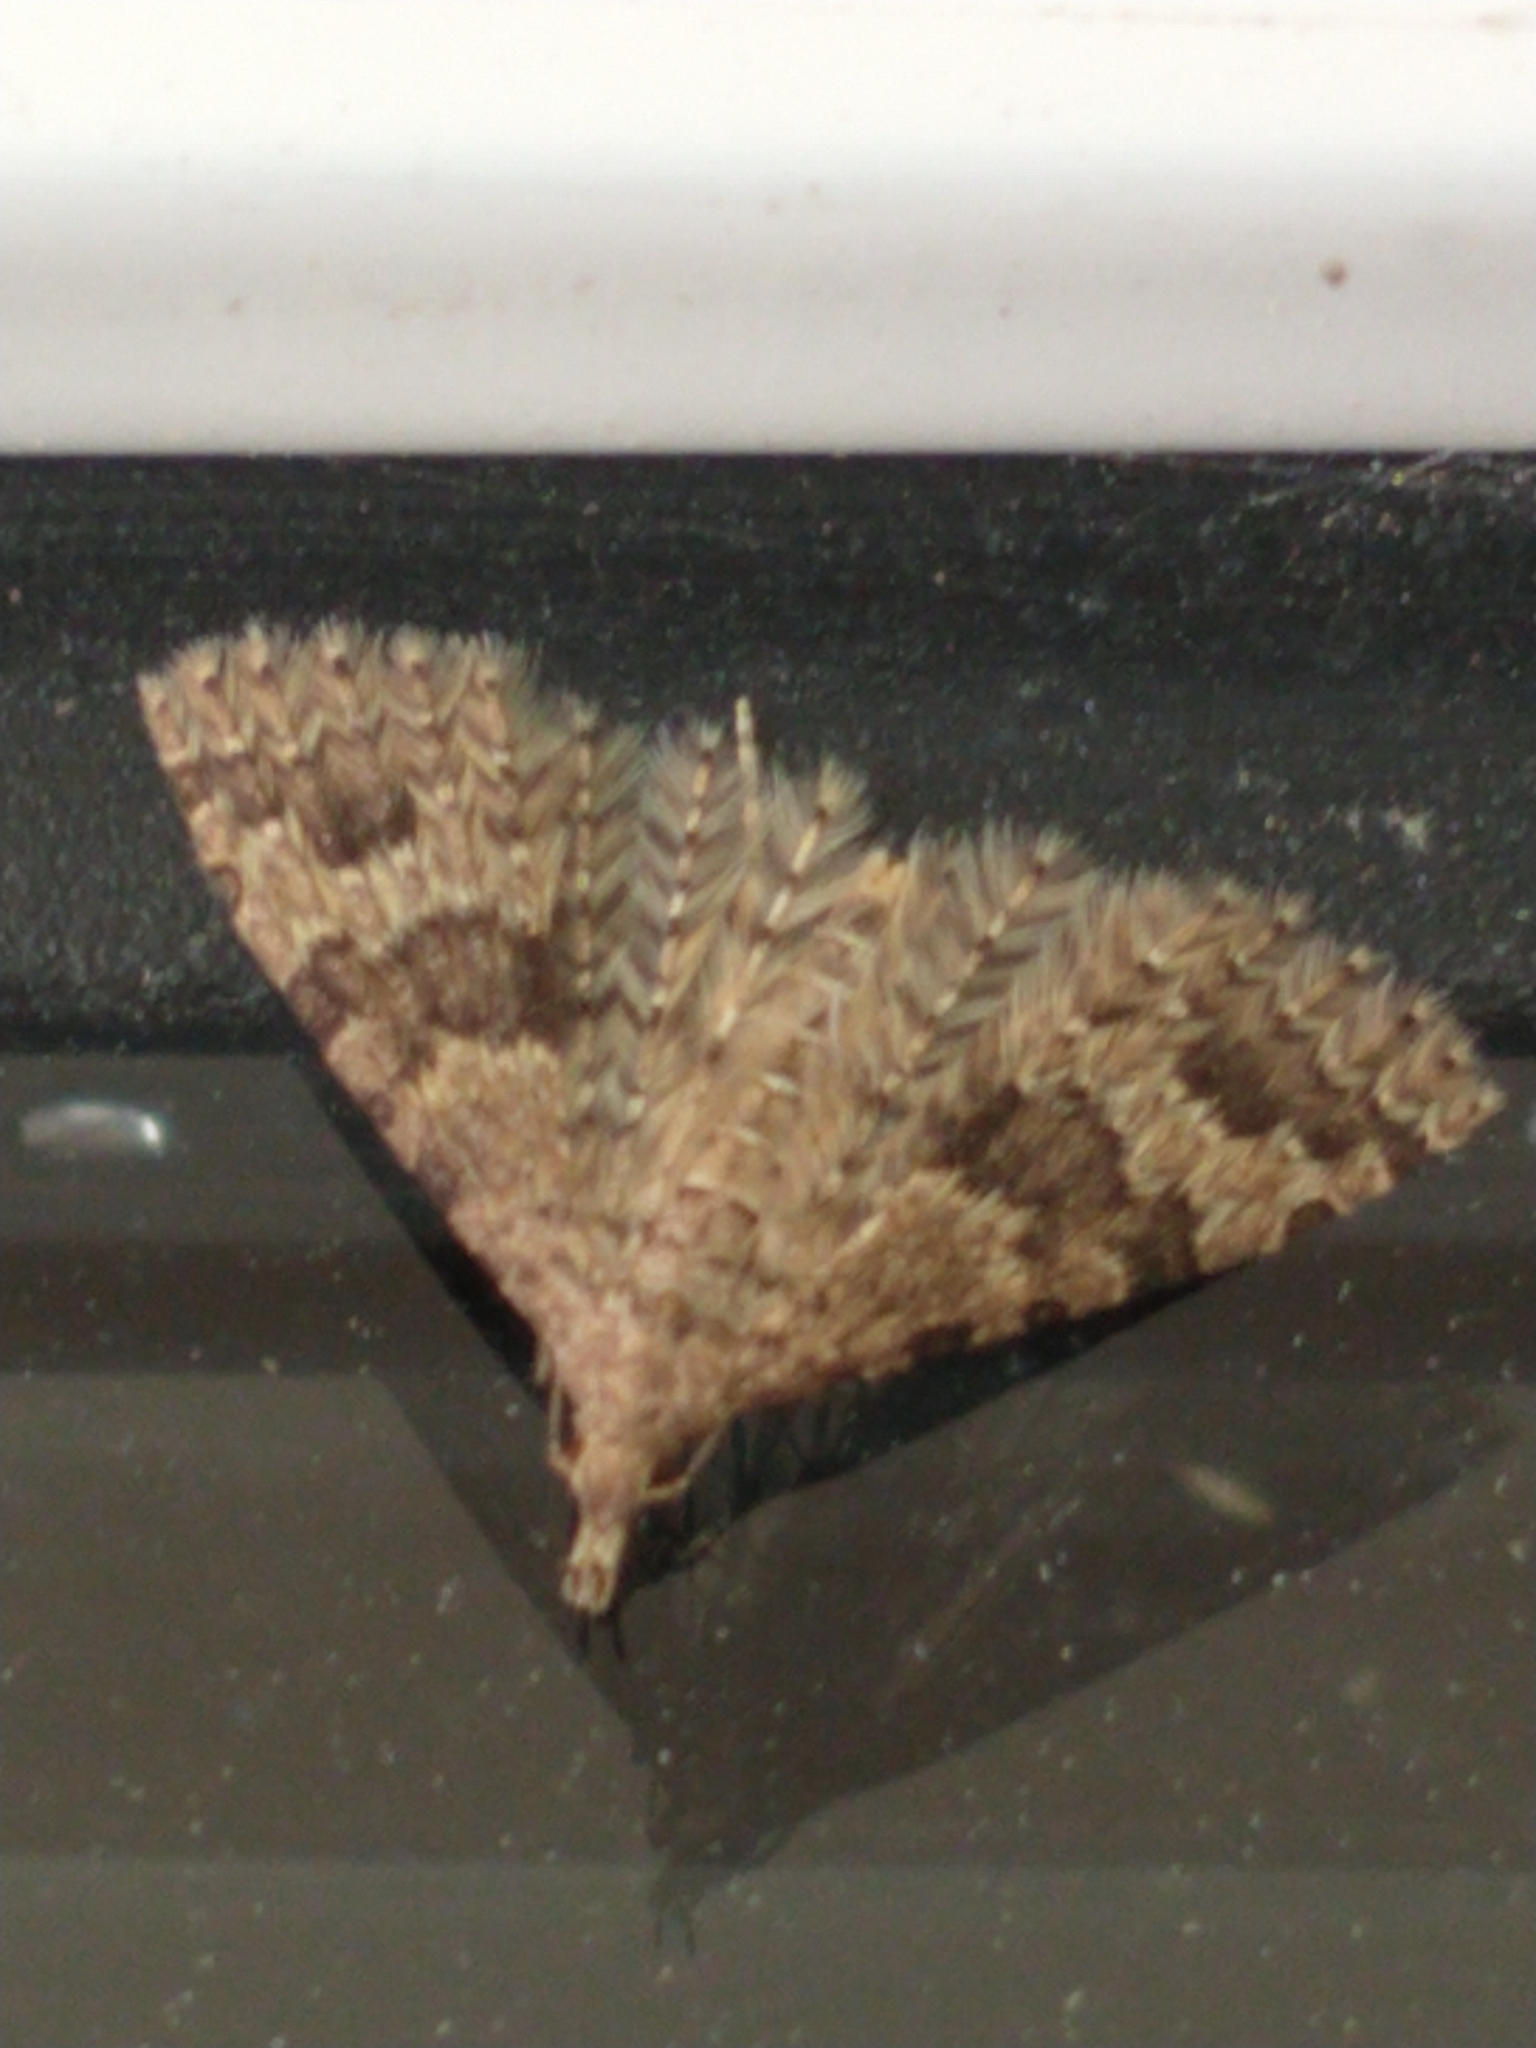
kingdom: Animalia
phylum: Arthropoda
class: Insecta
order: Lepidoptera
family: Alucitidae
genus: Alucita
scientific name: Alucita hexadactyla
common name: Twenty-plume moth
